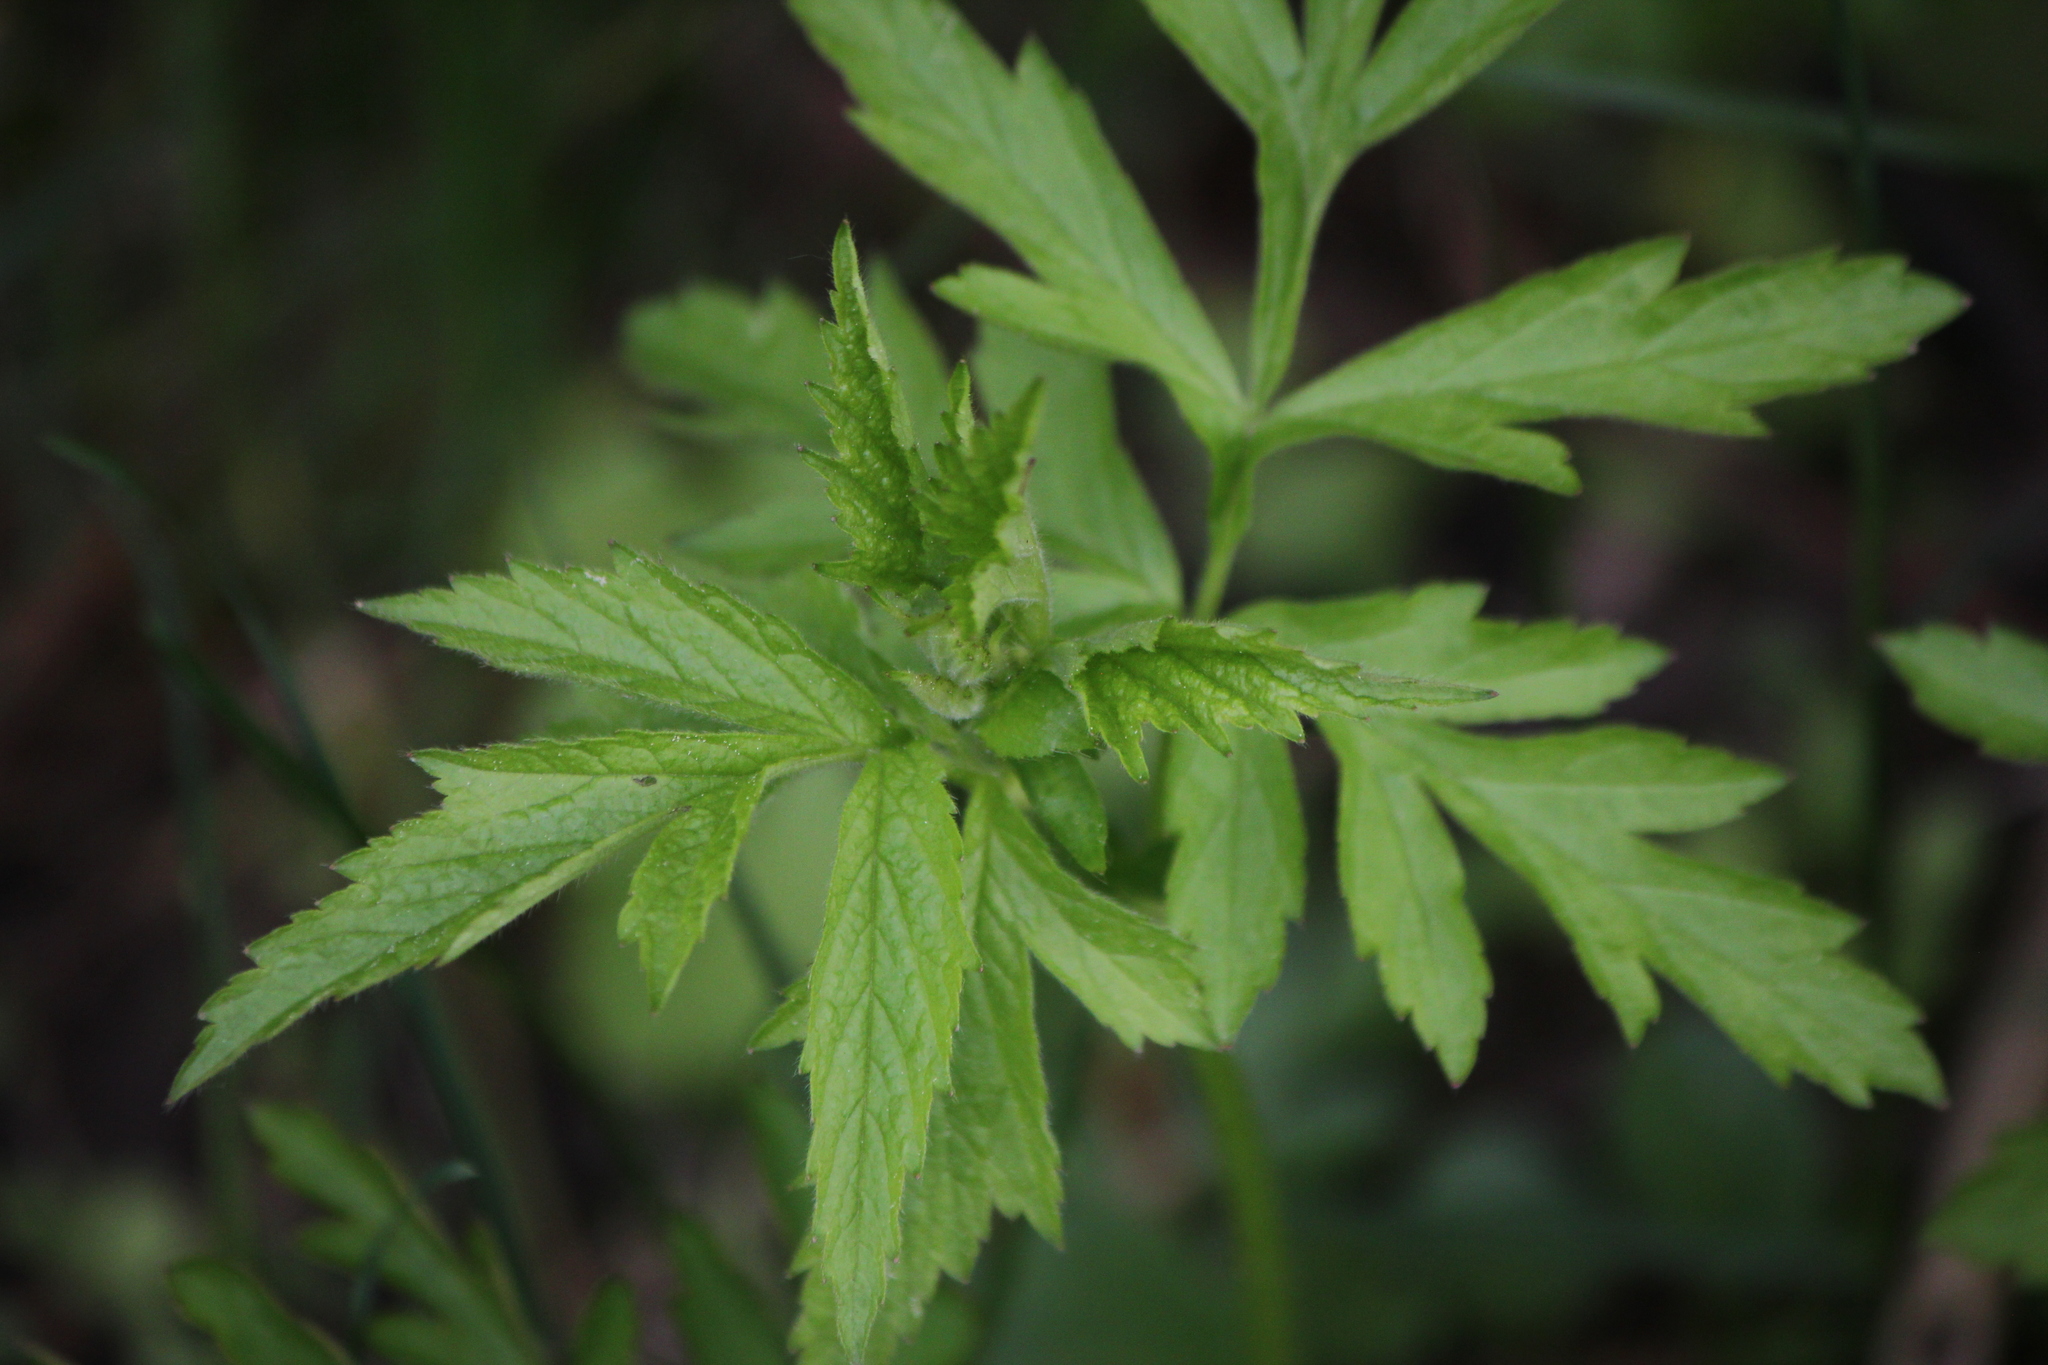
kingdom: Plantae
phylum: Tracheophyta
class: Magnoliopsida
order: Asterales
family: Asteraceae
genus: Artemisia
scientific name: Artemisia vulgaris
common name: Mugwort
